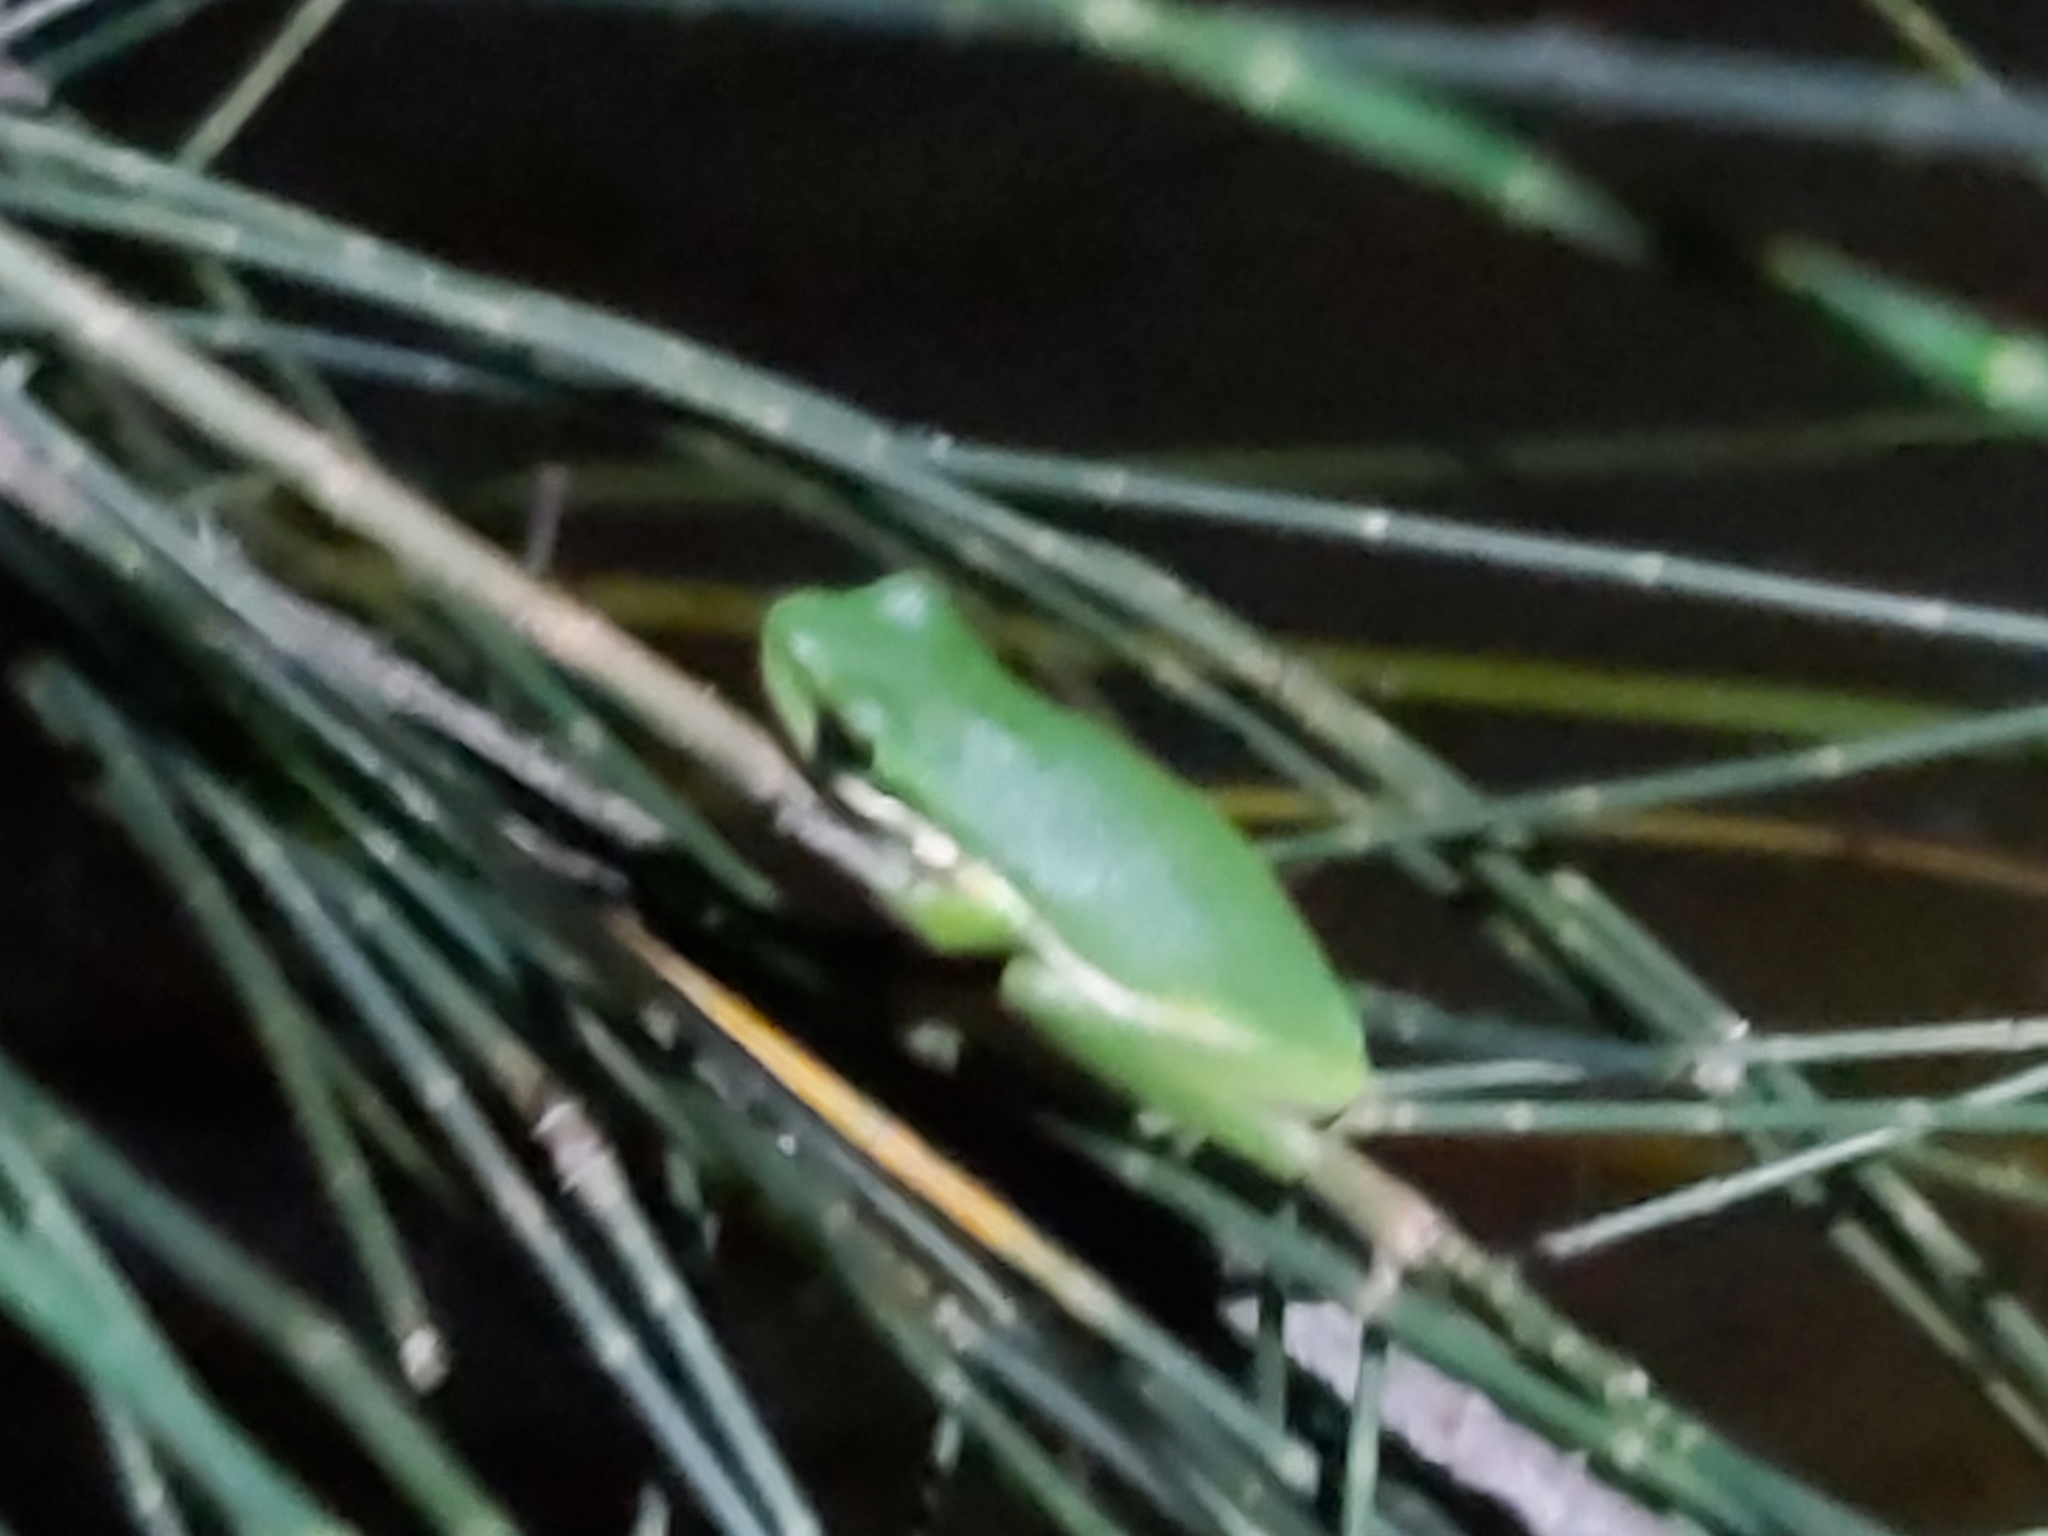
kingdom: Animalia
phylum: Chordata
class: Amphibia
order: Anura
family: Pelodryadidae
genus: Litoria
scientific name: Litoria fallax
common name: Eastern dwarf treefrog
